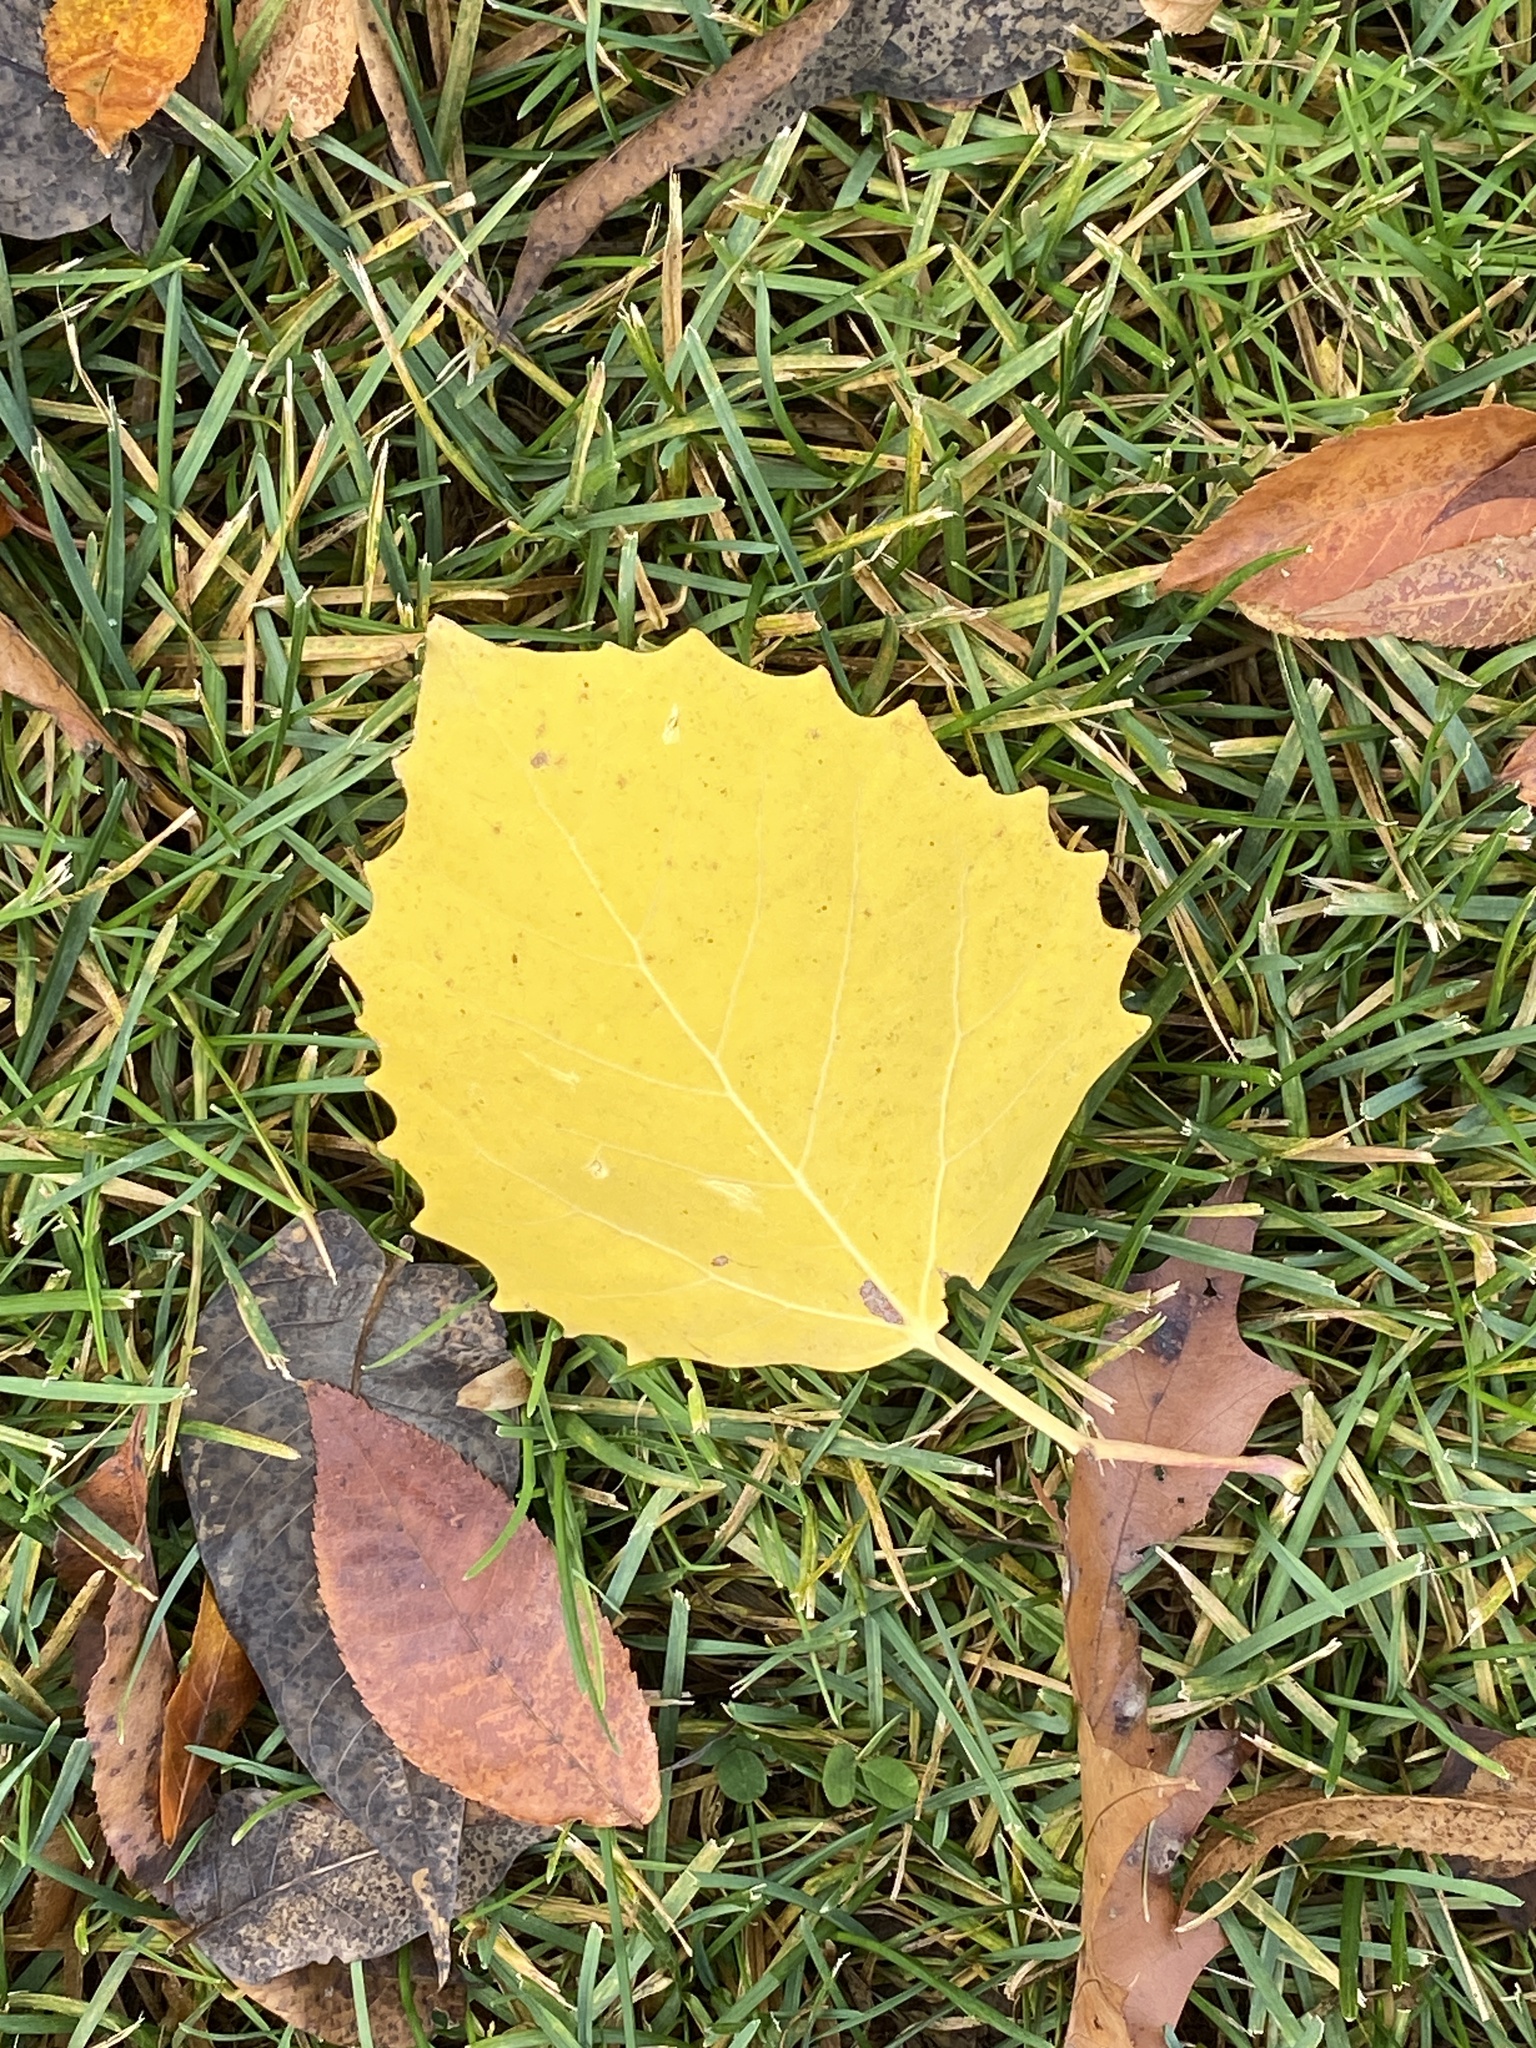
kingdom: Plantae
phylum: Tracheophyta
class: Magnoliopsida
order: Malpighiales
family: Salicaceae
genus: Populus
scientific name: Populus grandidentata
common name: Bigtooth aspen
